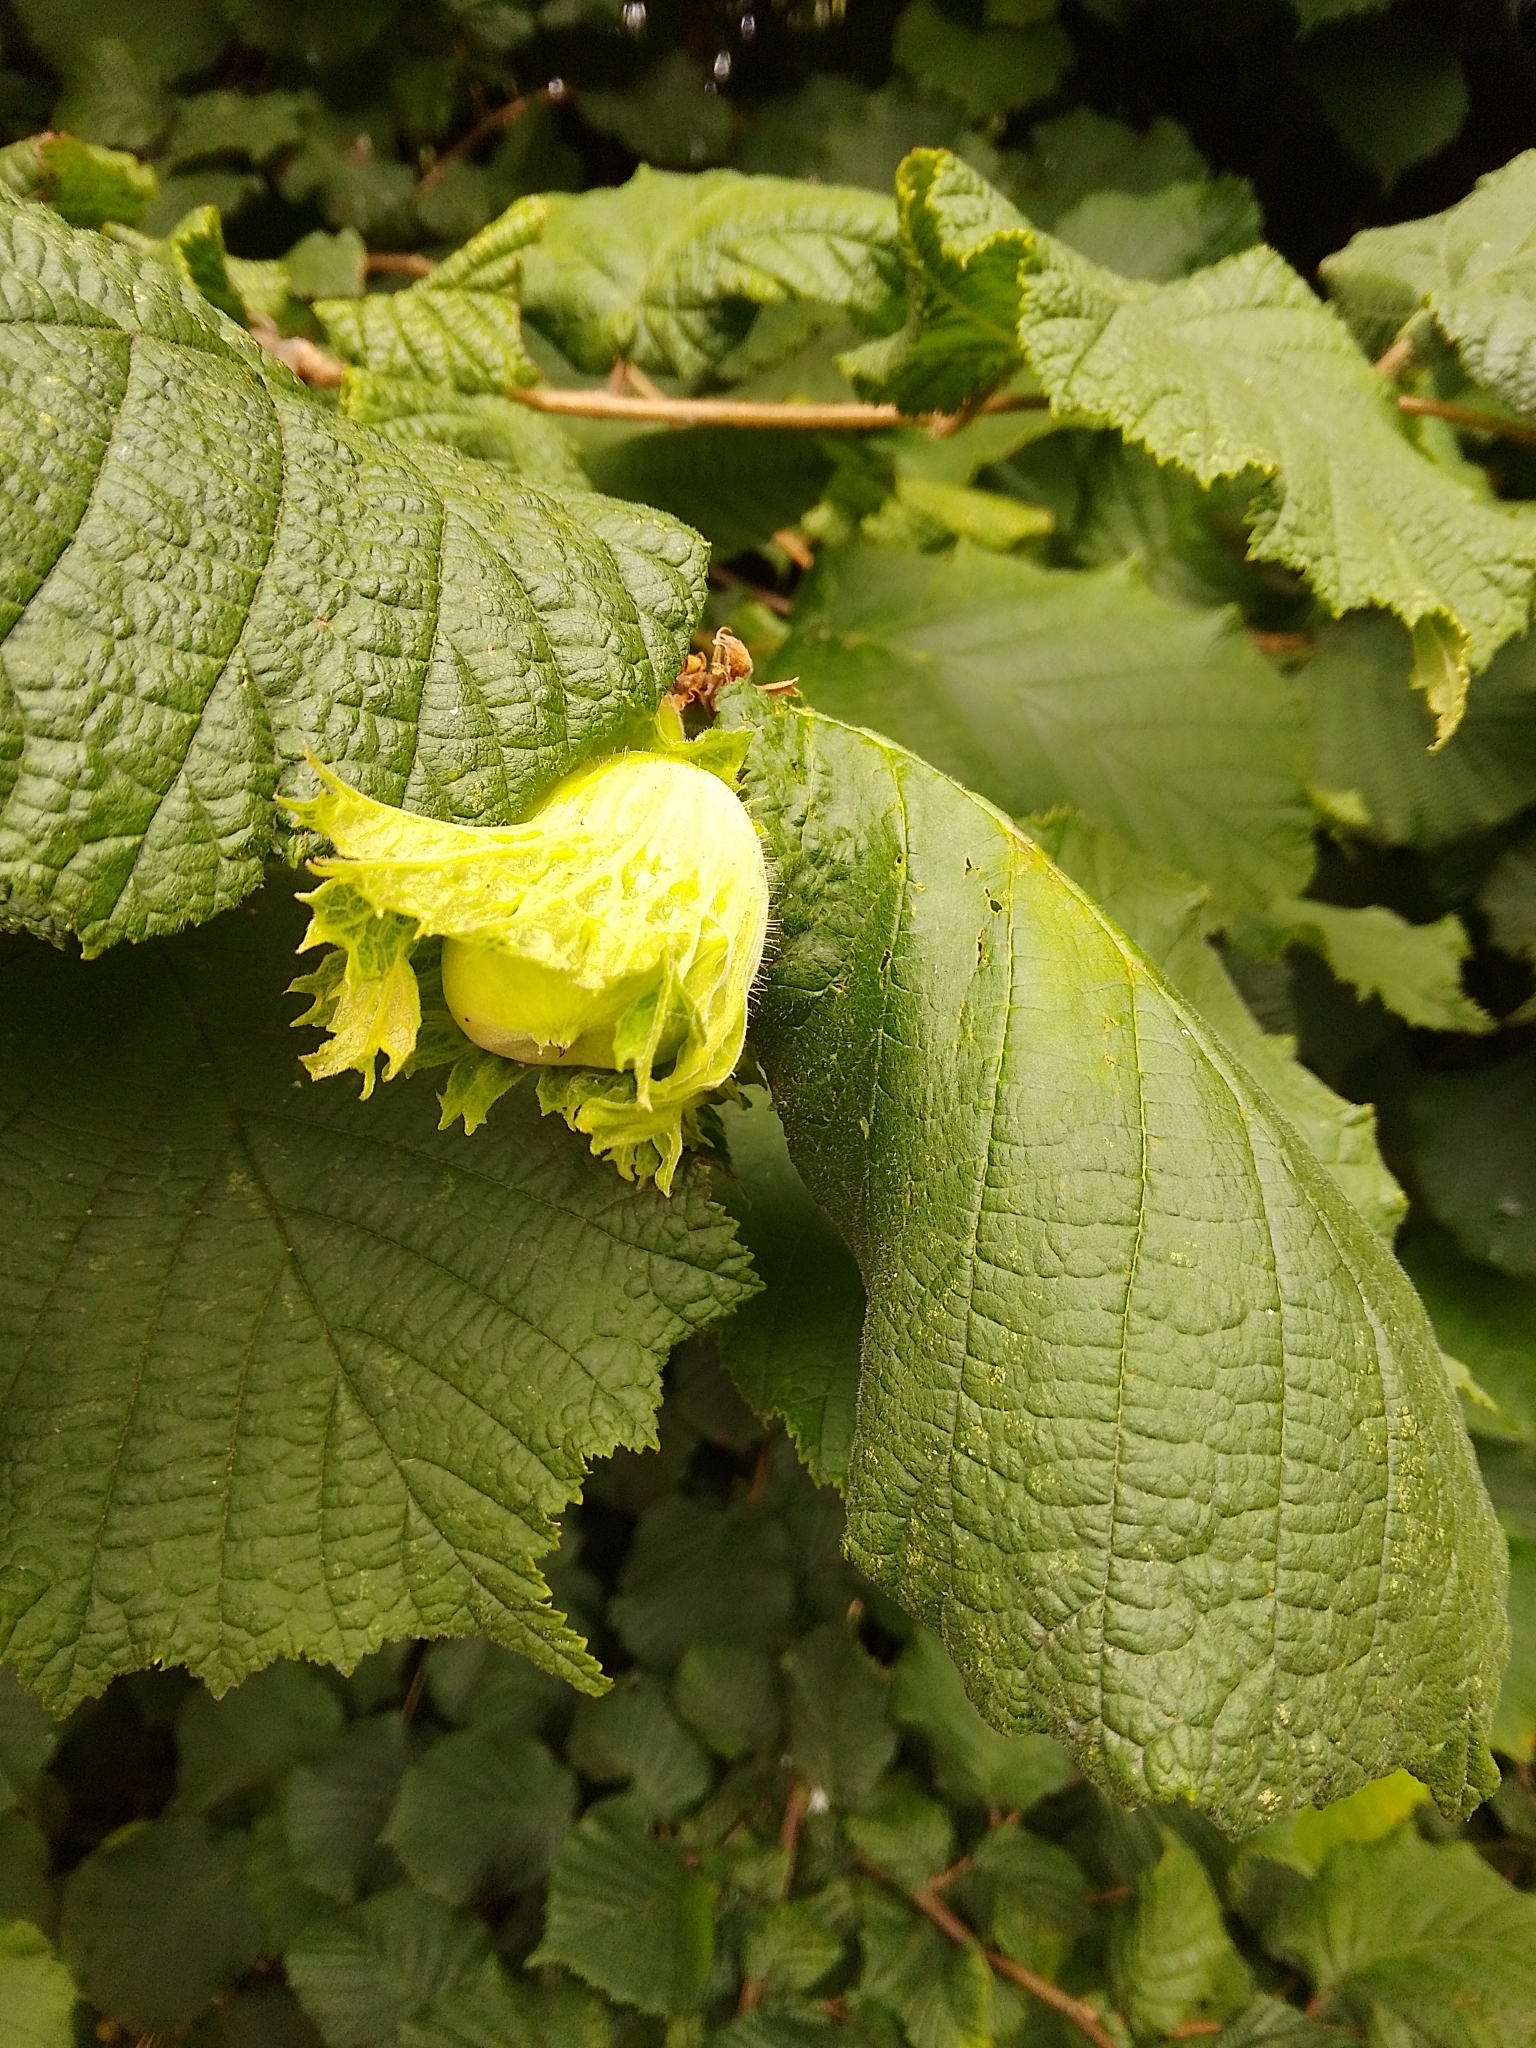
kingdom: Plantae
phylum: Tracheophyta
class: Magnoliopsida
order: Fagales
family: Betulaceae
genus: Corylus
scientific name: Corylus avellana
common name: European hazel
